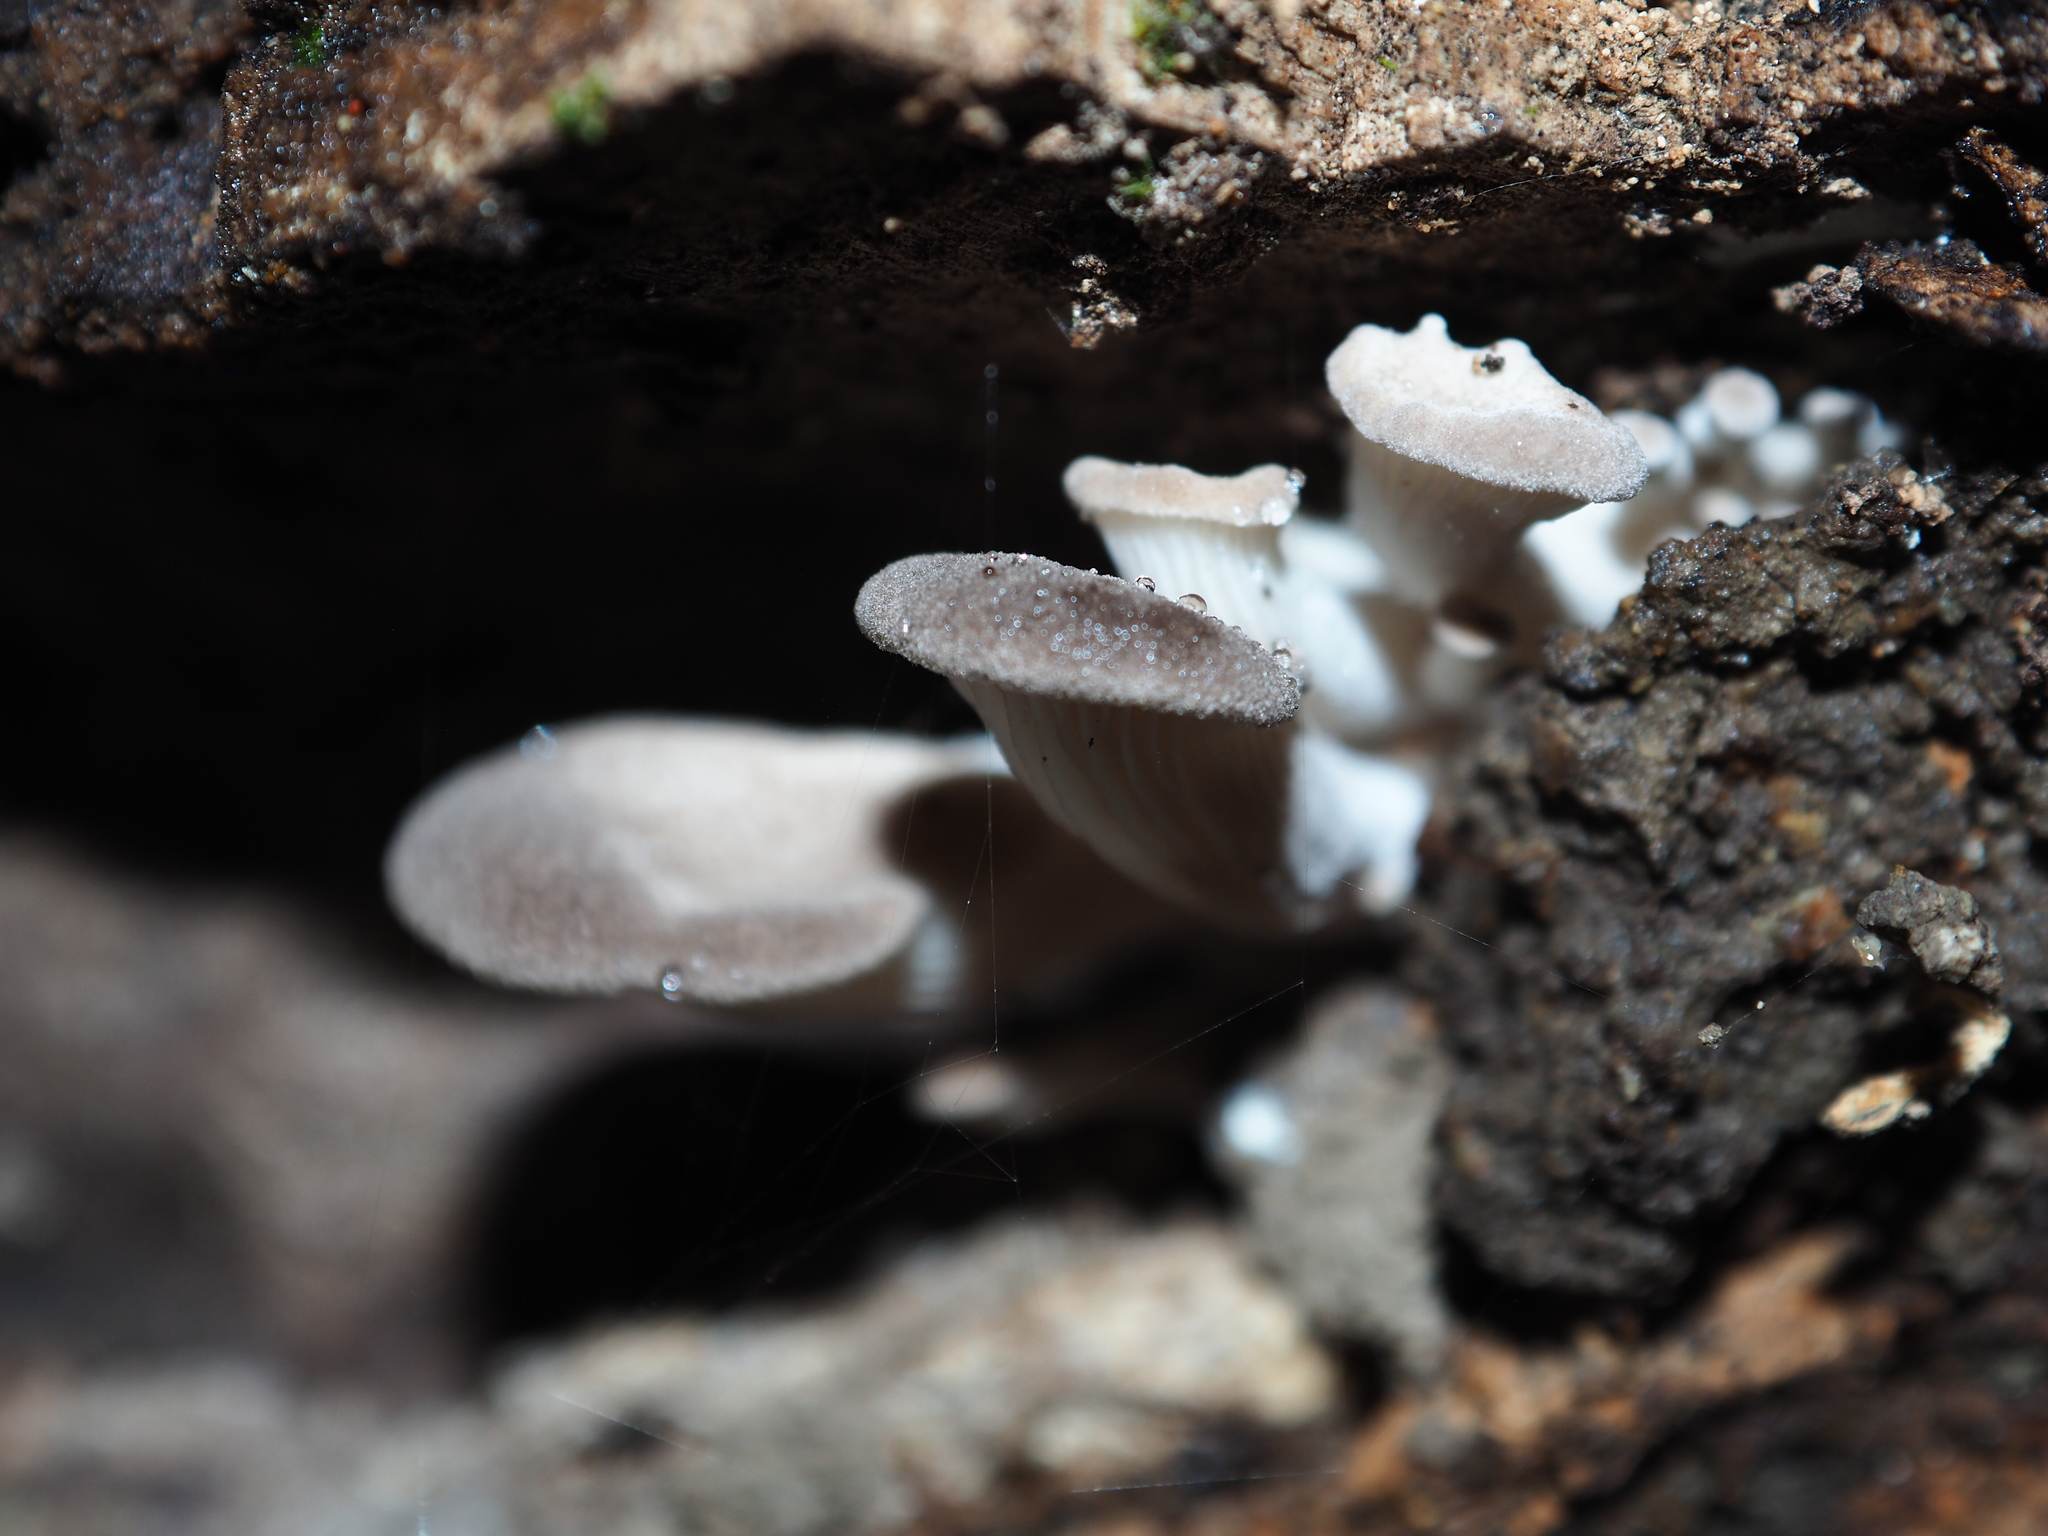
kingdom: Fungi
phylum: Basidiomycota
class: Agaricomycetes
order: Agaricales
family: Pleurotaceae
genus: Pleurotus
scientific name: Pleurotus parsonsiae
